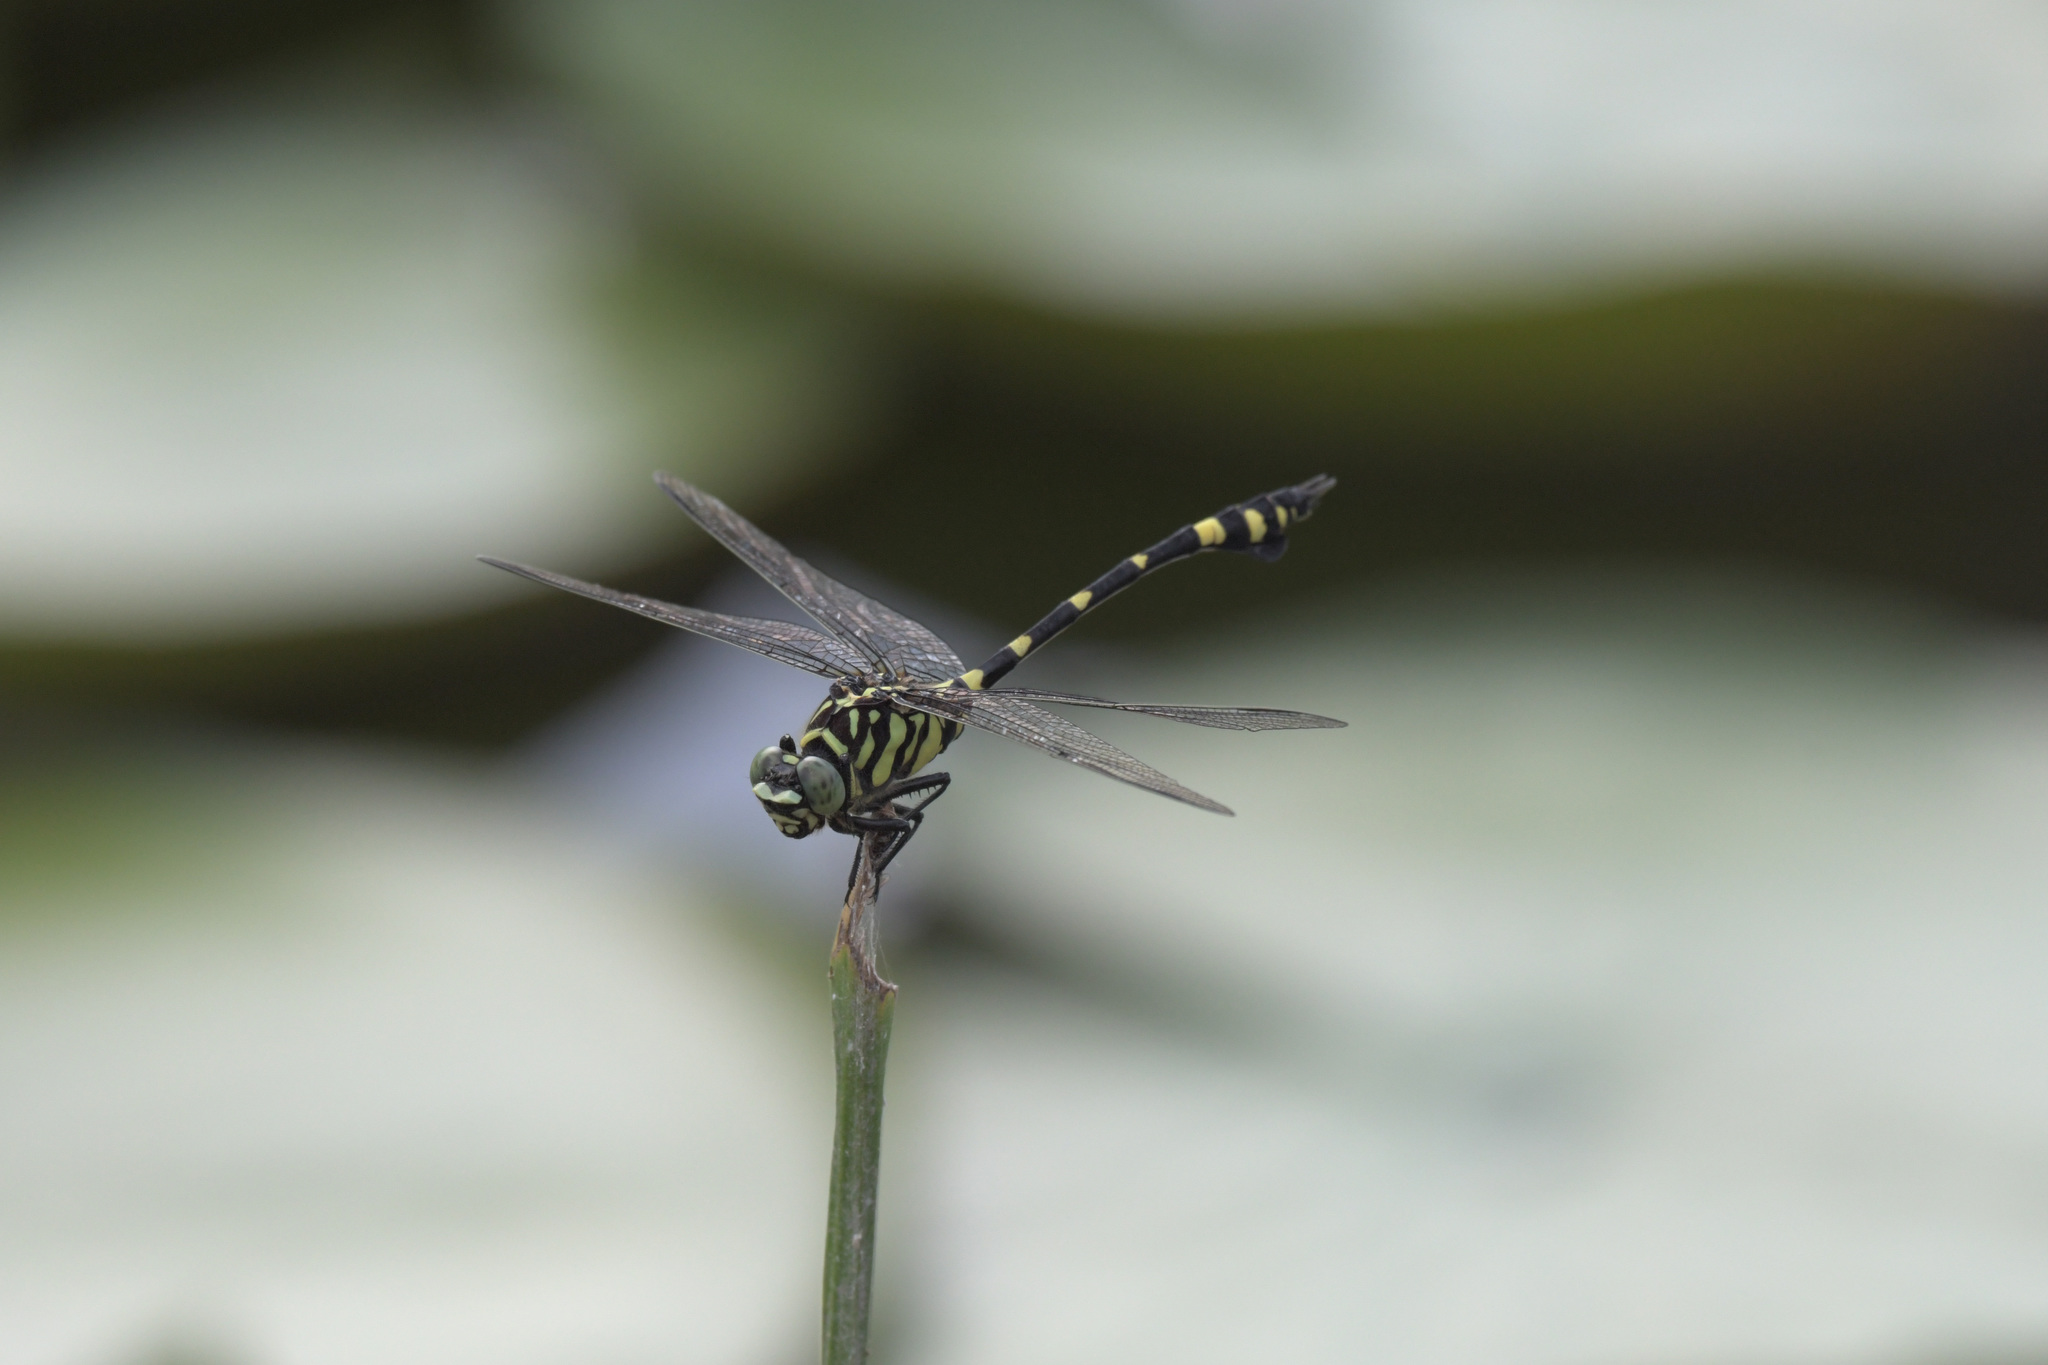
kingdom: Animalia
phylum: Arthropoda
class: Insecta
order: Odonata
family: Gomphidae
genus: Ictinogomphus
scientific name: Ictinogomphus pertinax
